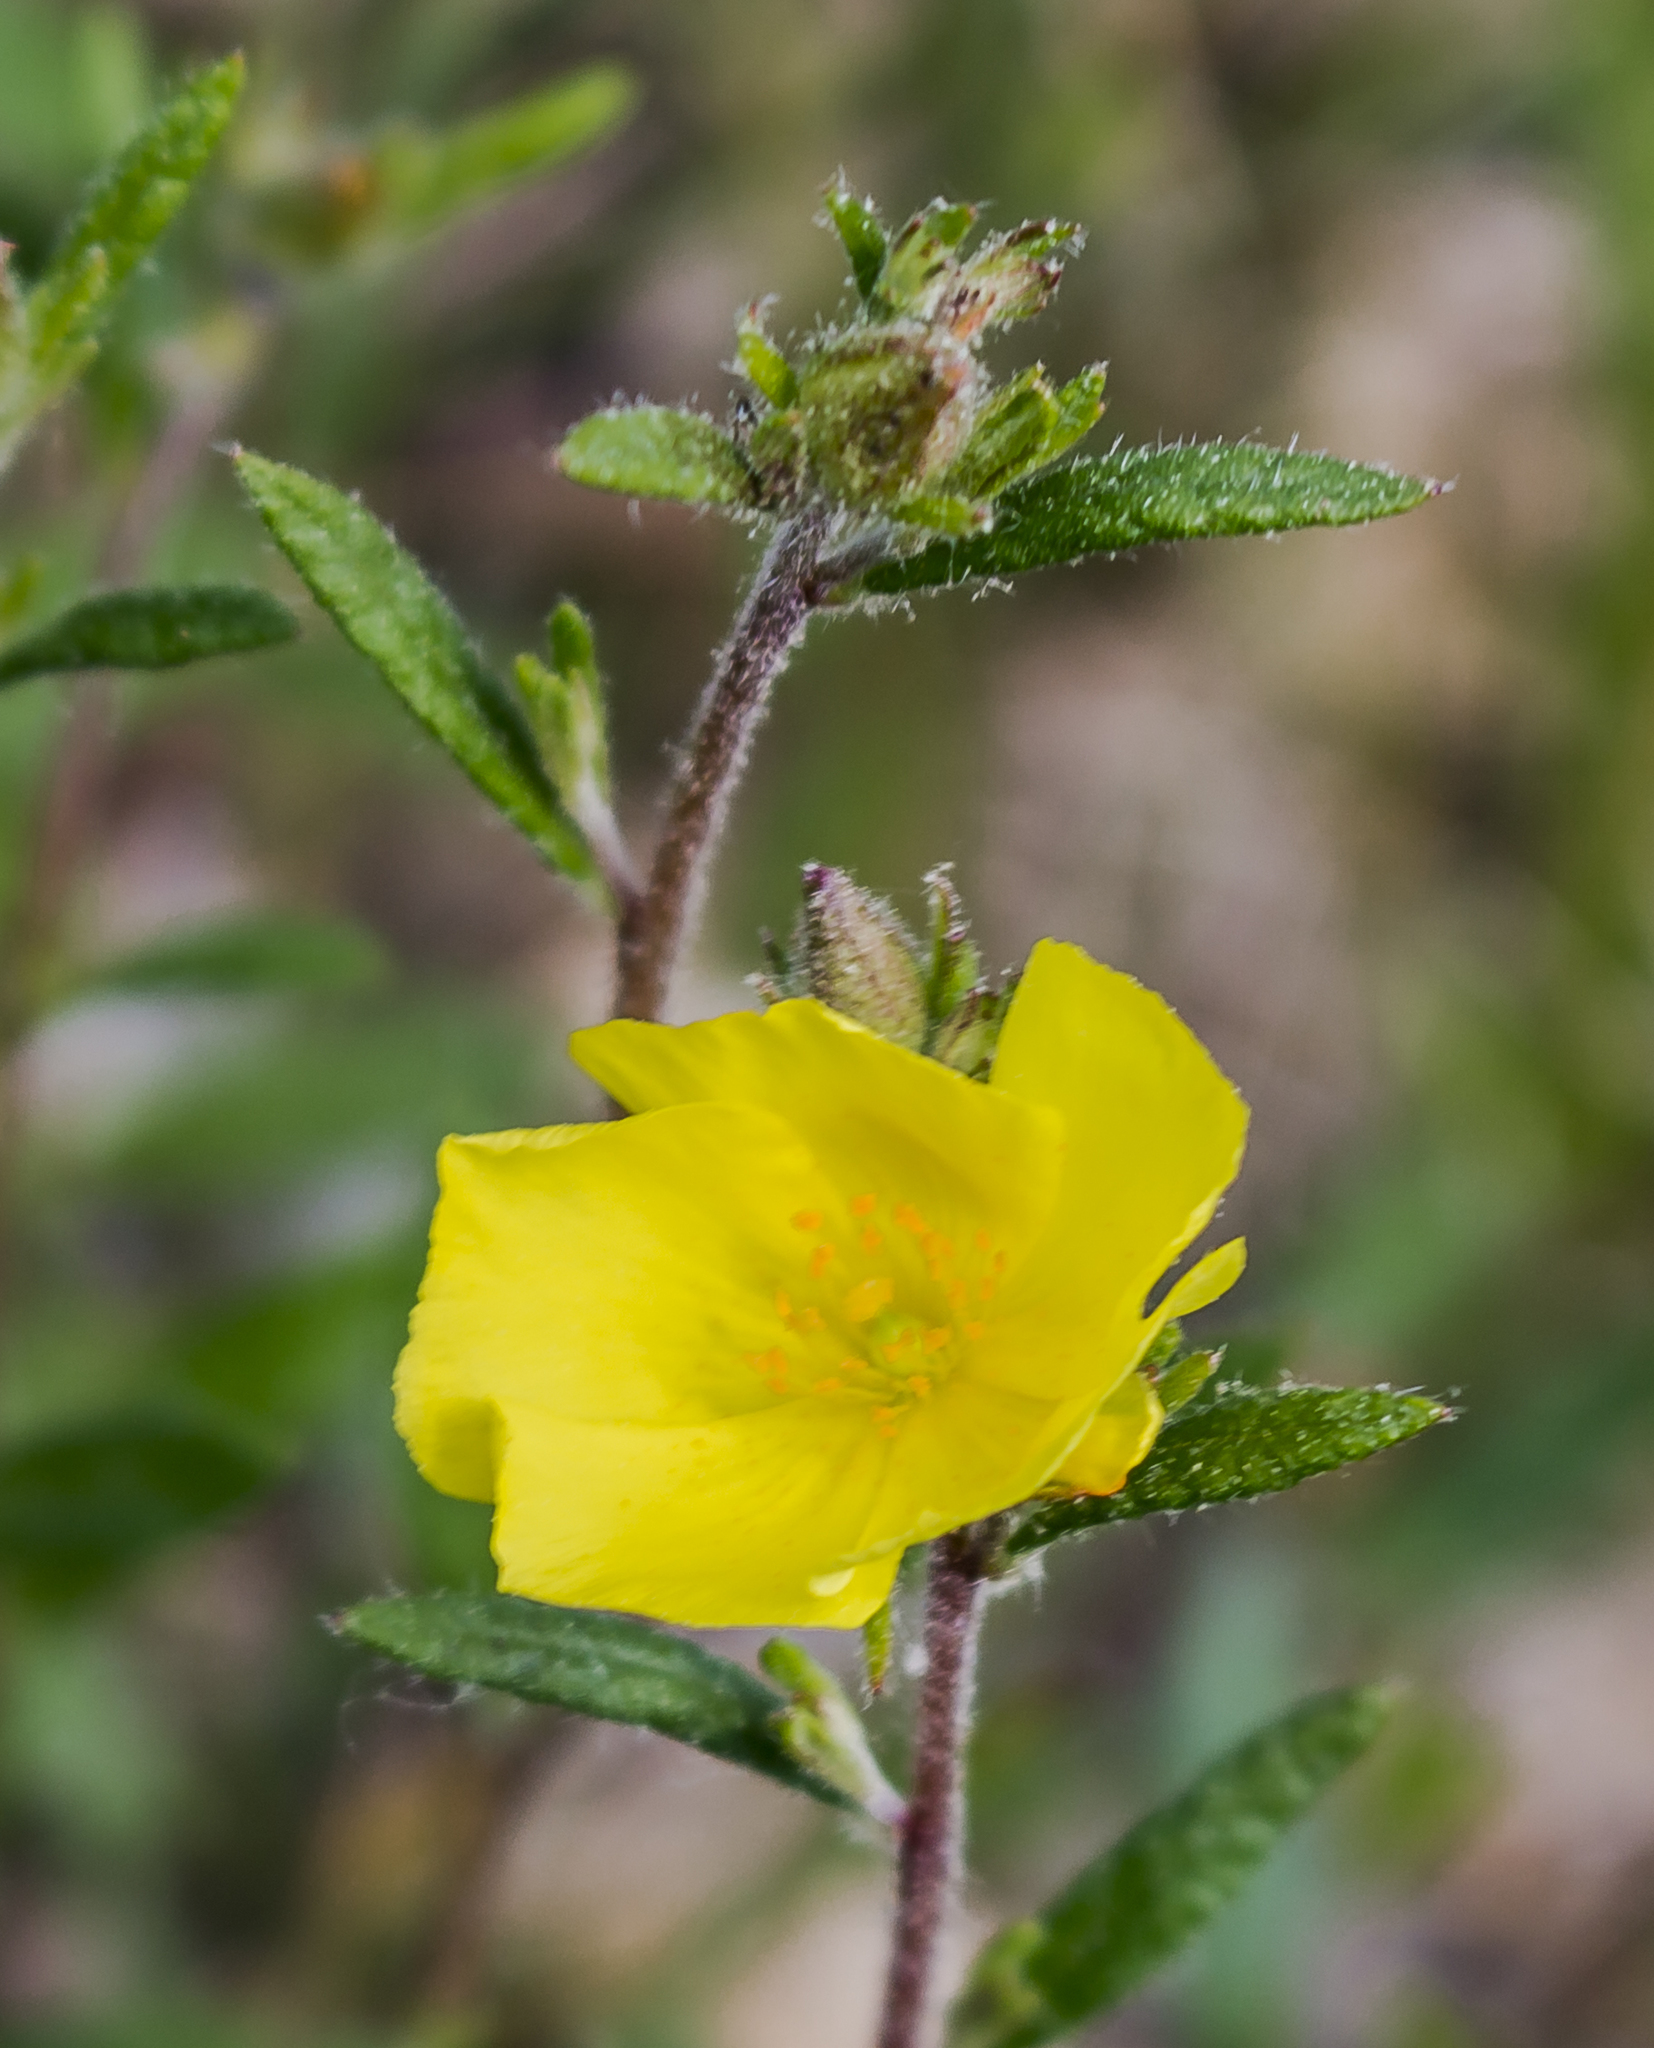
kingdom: Plantae
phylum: Tracheophyta
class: Magnoliopsida
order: Malvales
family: Cistaceae
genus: Crocanthemum
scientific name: Crocanthemum canadense
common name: Canada frostweed
